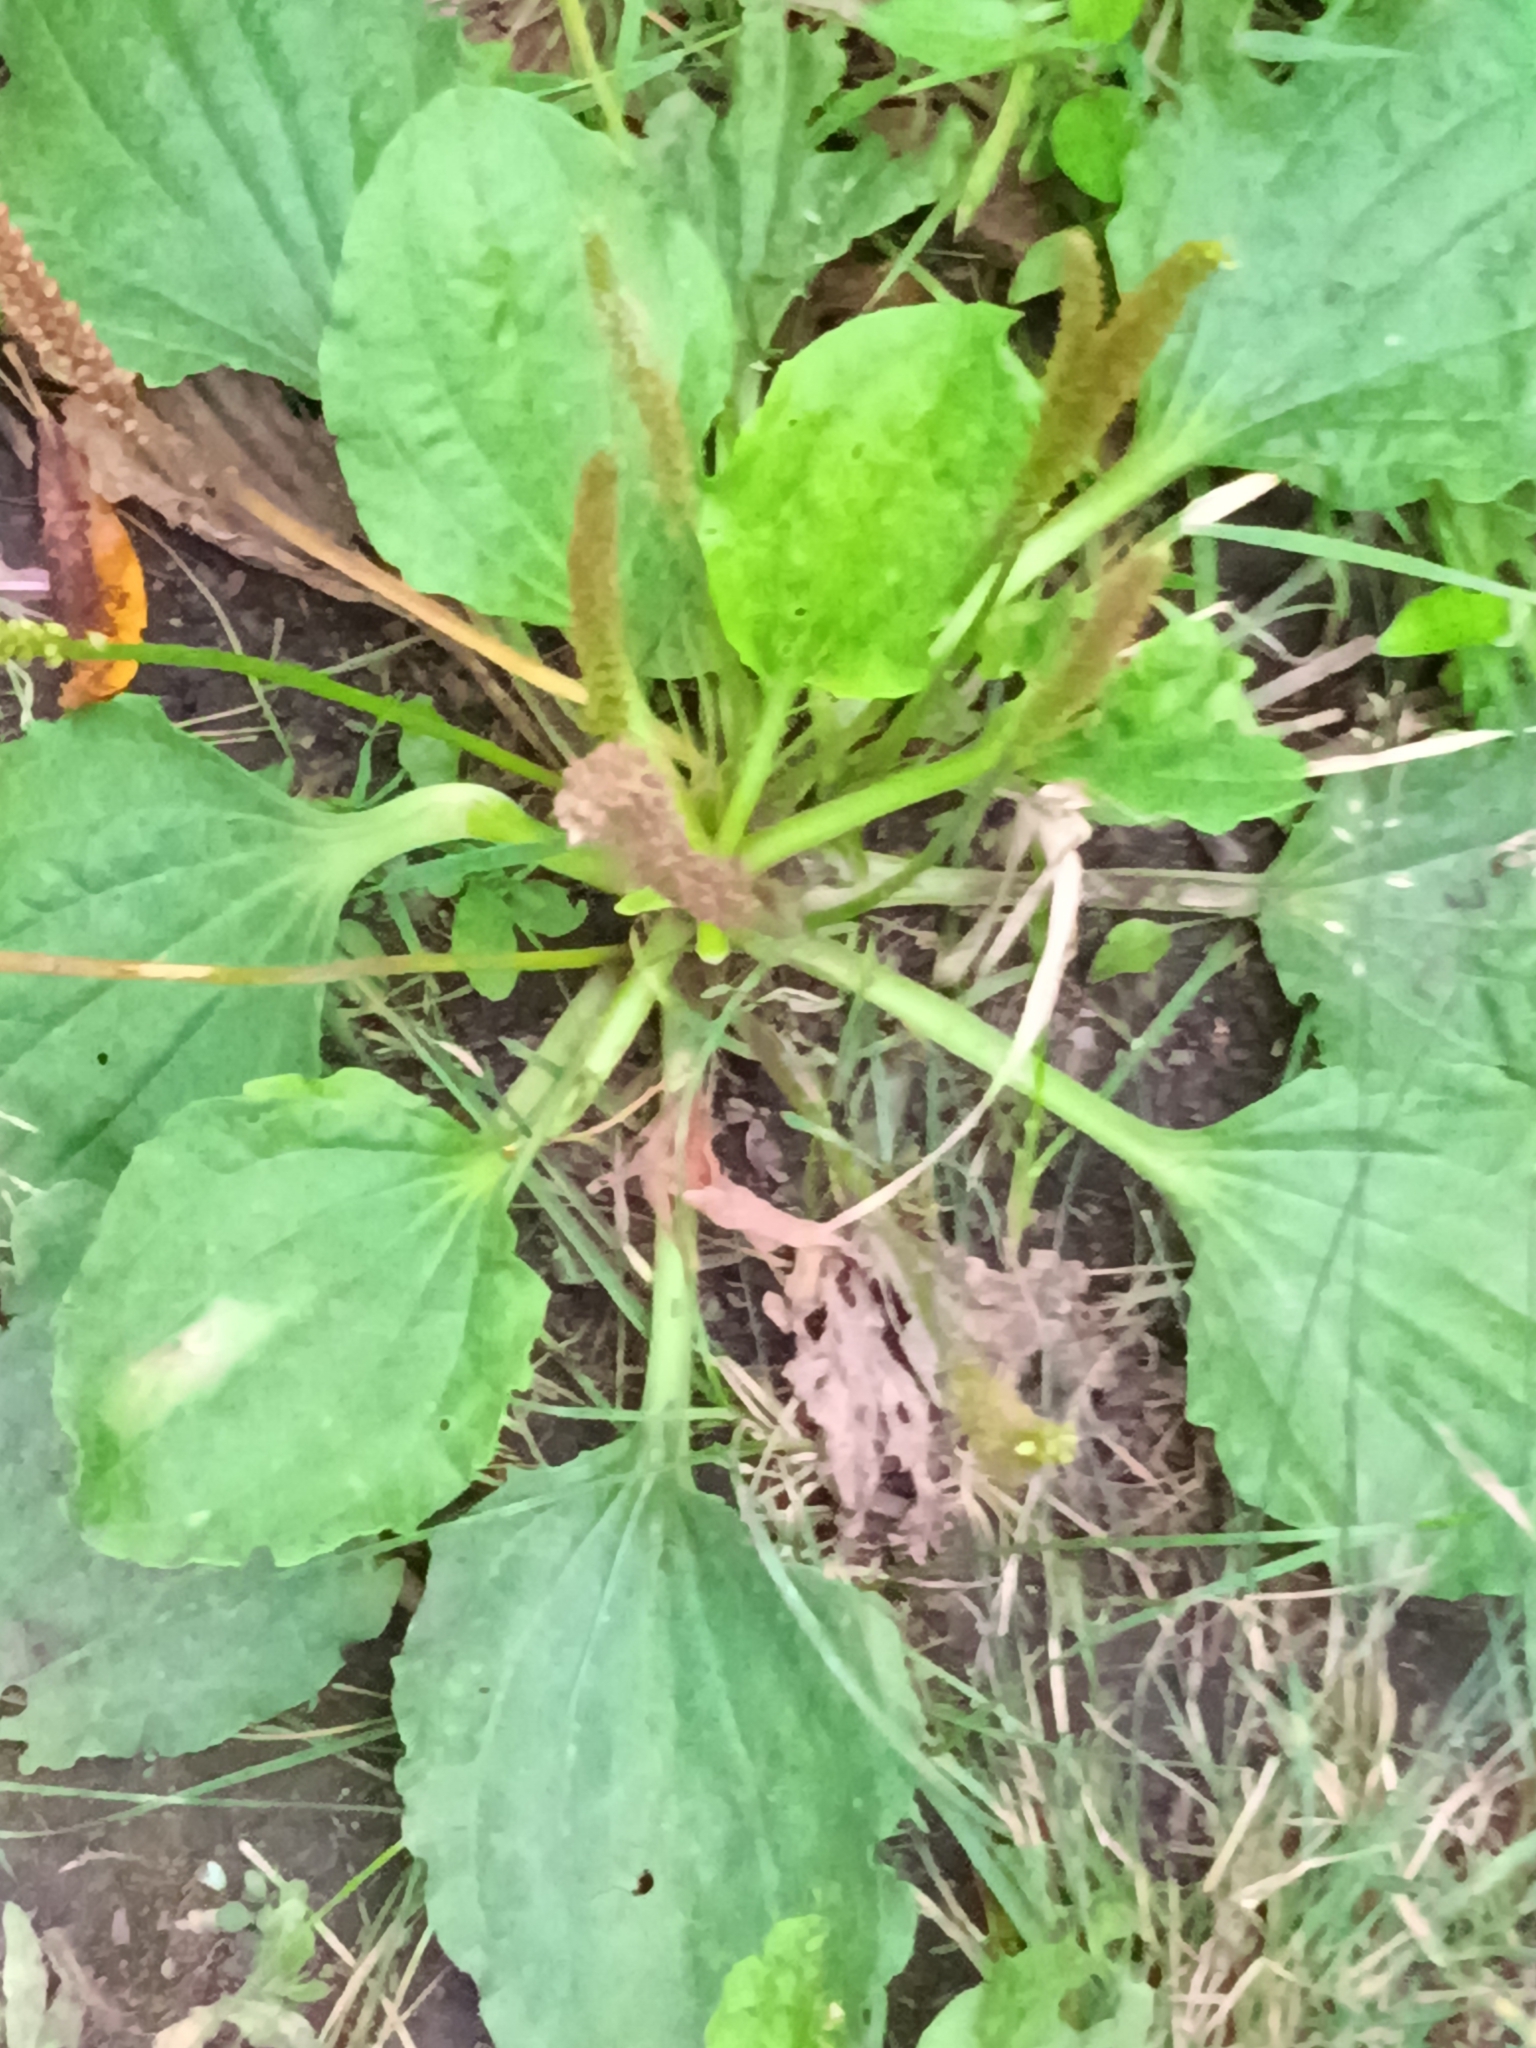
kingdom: Plantae
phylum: Tracheophyta
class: Magnoliopsida
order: Lamiales
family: Plantaginaceae
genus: Plantago
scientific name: Plantago major
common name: Common plantain
